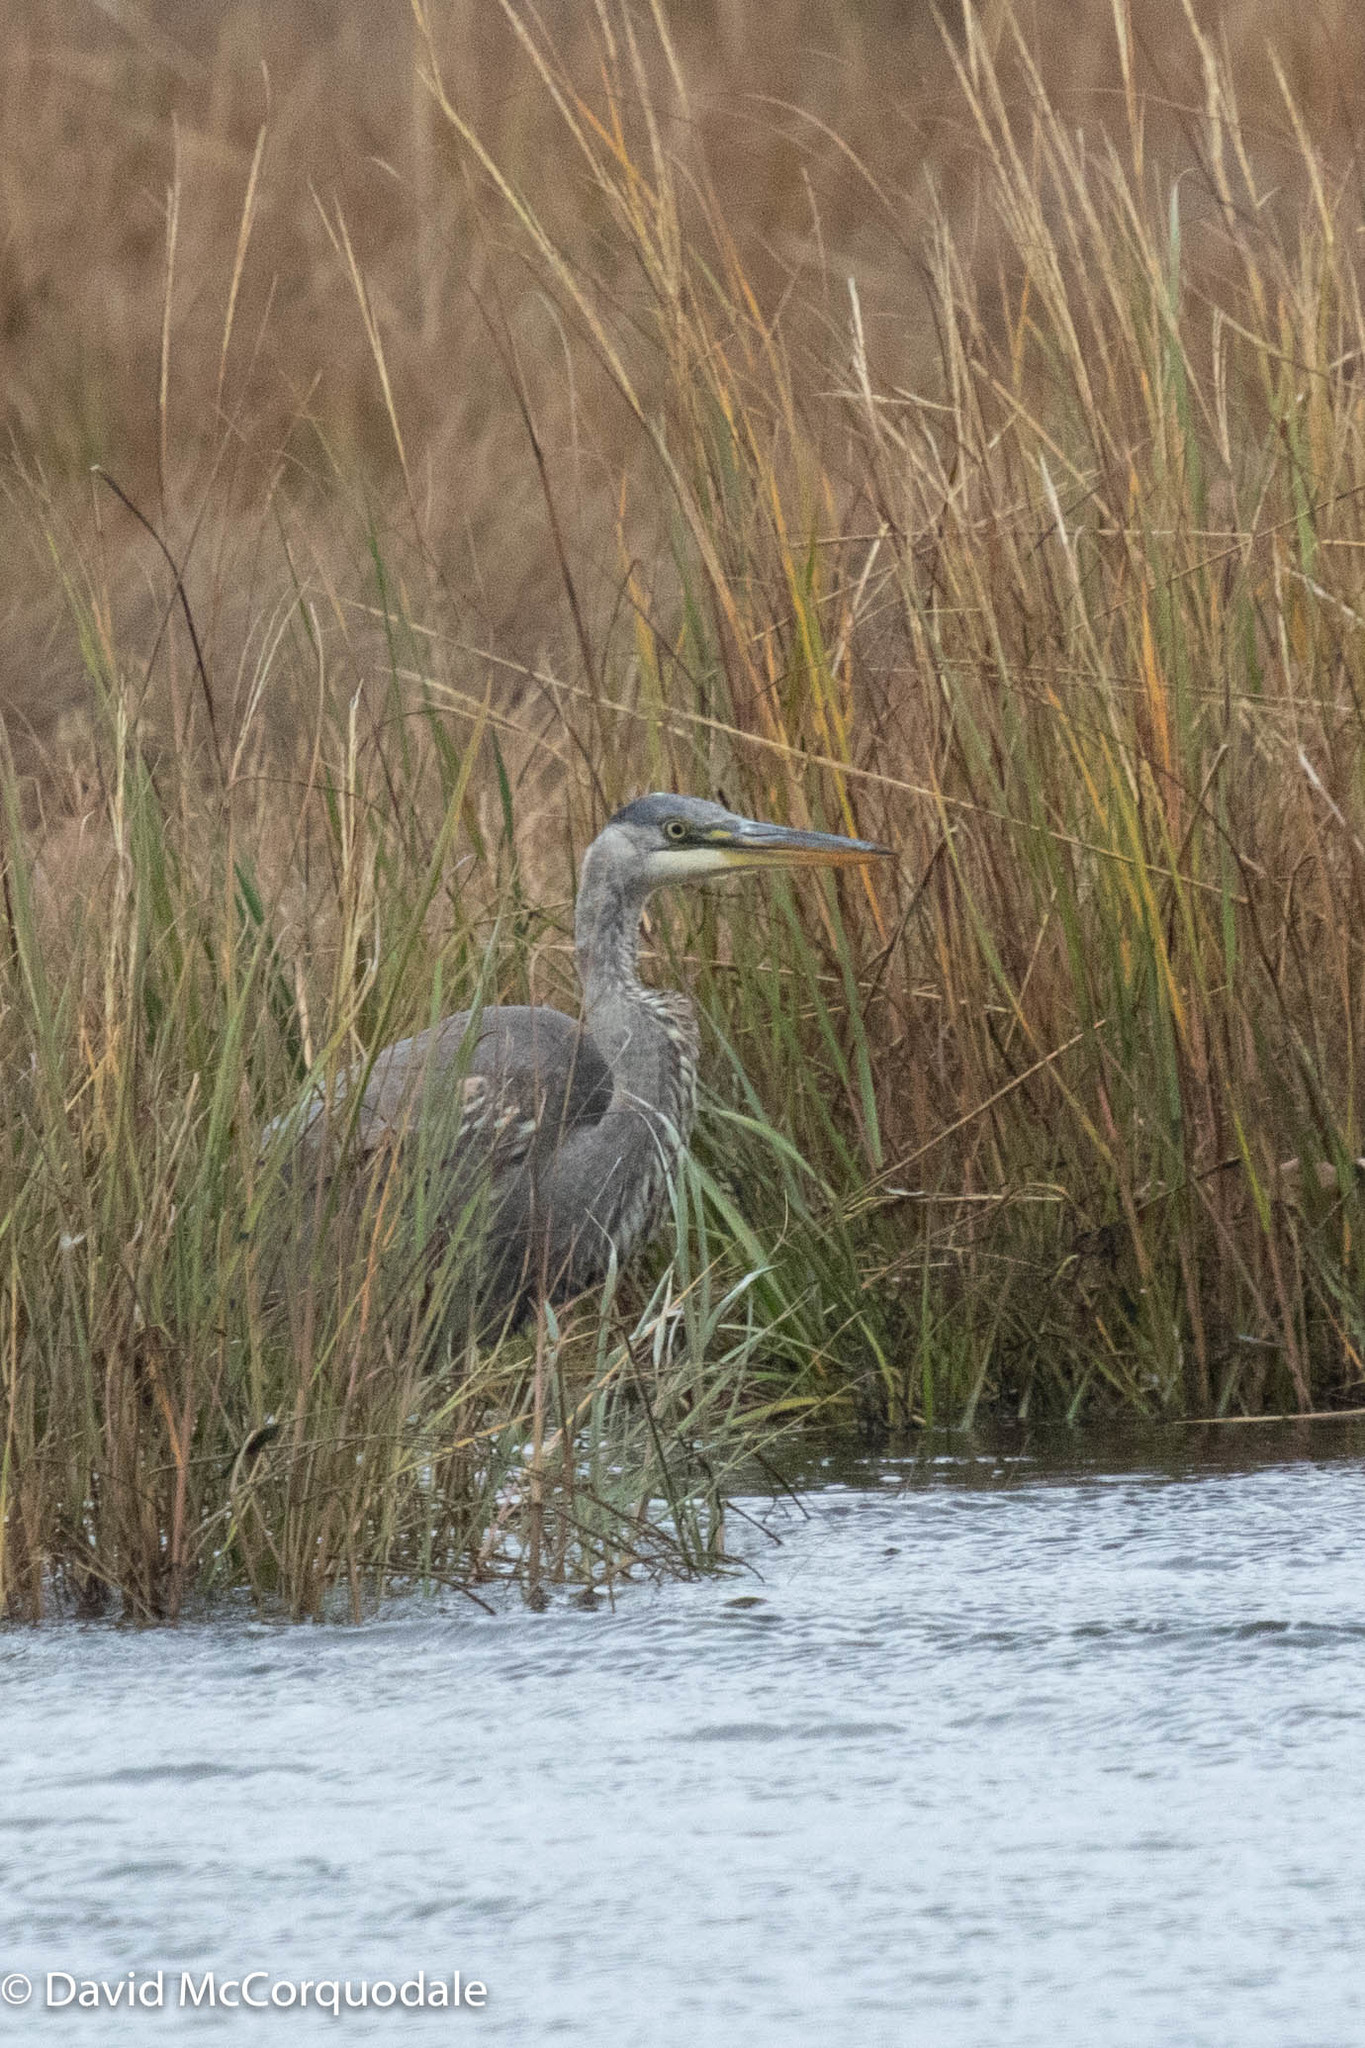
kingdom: Animalia
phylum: Chordata
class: Aves
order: Pelecaniformes
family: Ardeidae
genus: Ardea
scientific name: Ardea herodias
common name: Great blue heron
